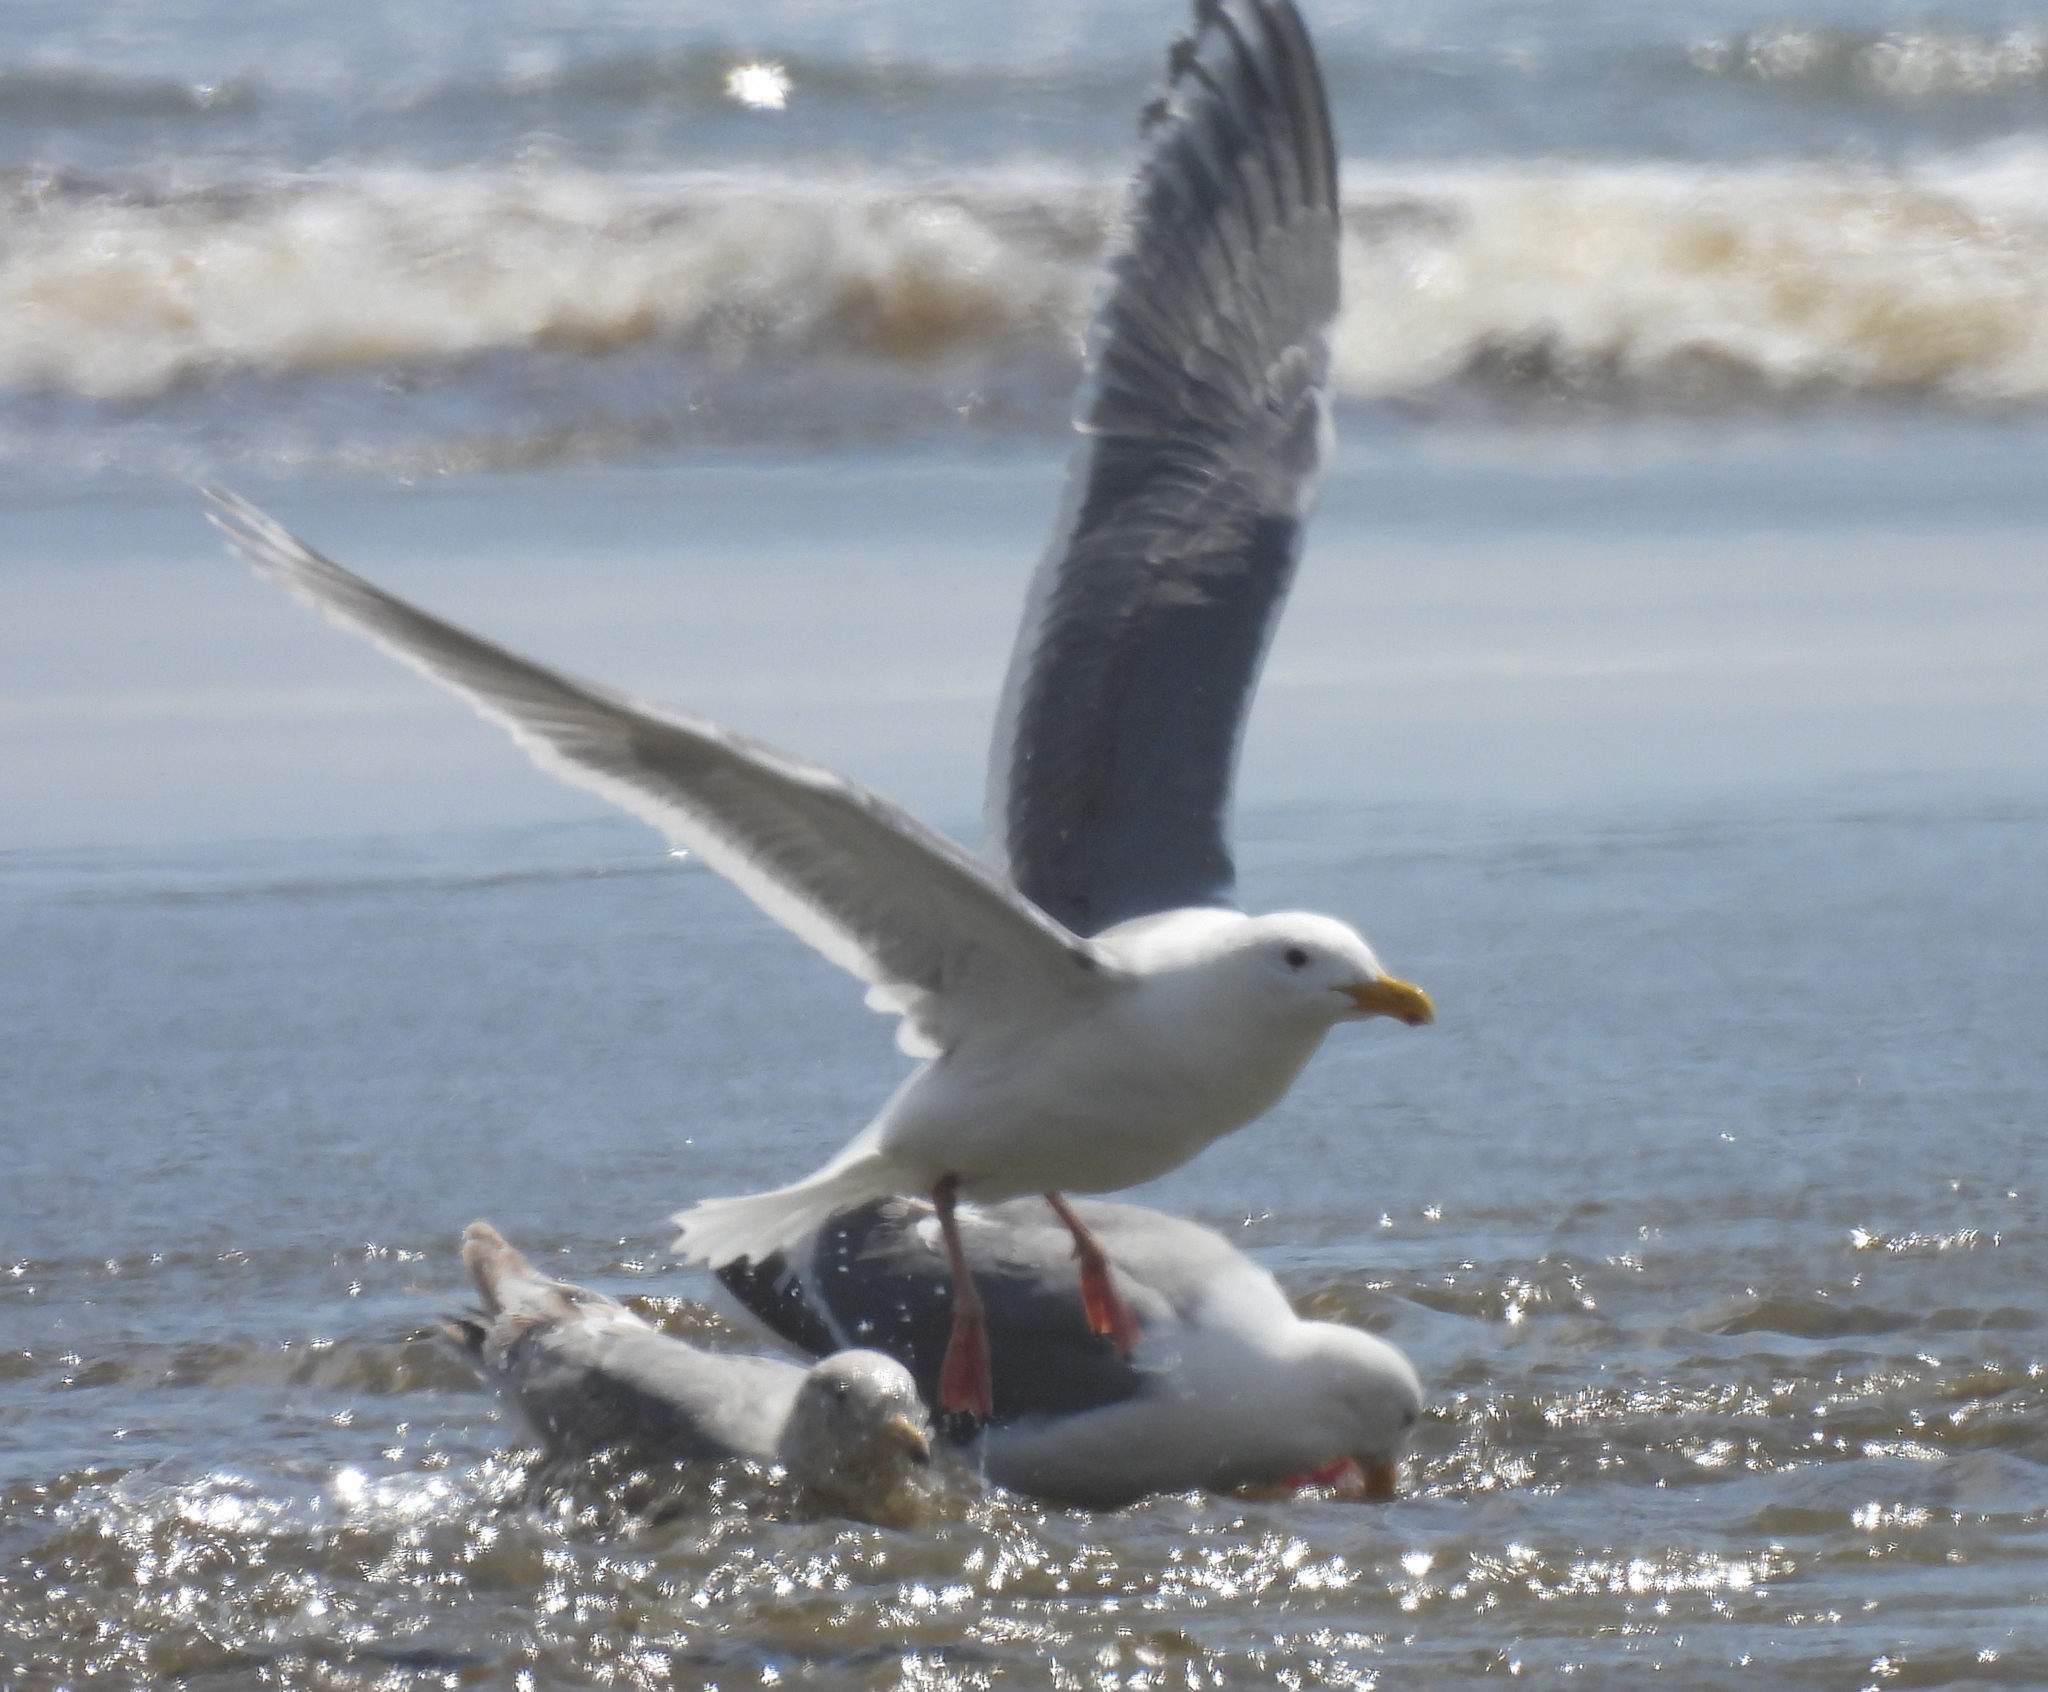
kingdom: Animalia
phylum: Chordata
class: Aves
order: Charadriiformes
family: Laridae
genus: Larus
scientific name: Larus glaucescens
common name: Glaucous-winged gull
